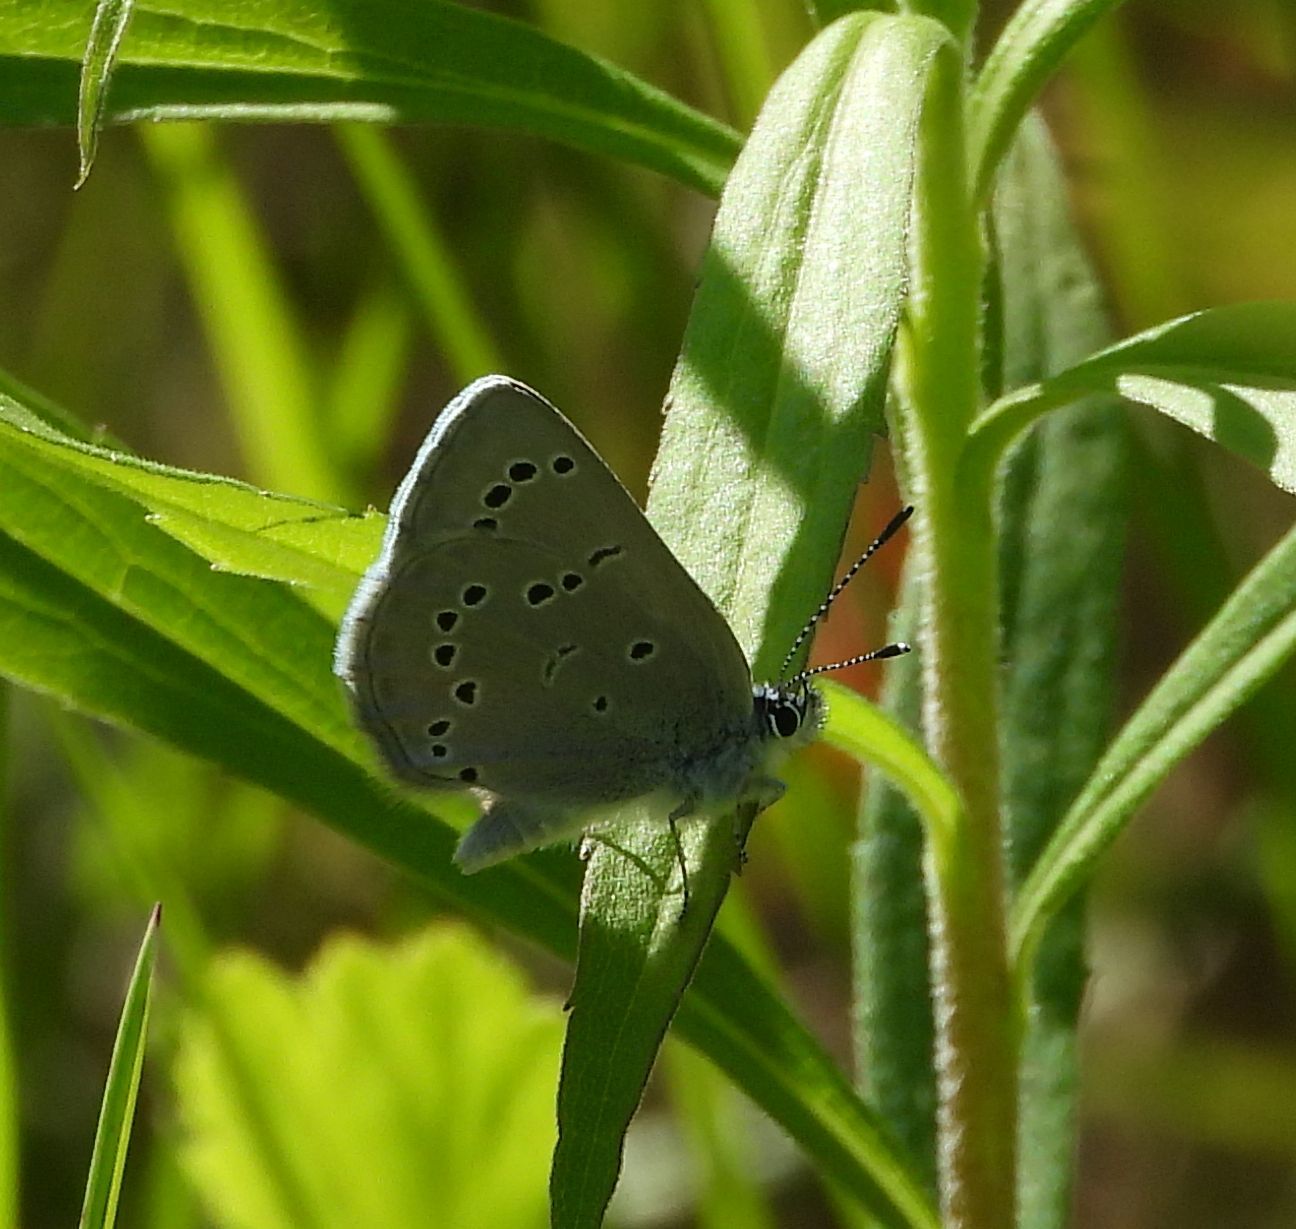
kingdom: Animalia
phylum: Arthropoda
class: Insecta
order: Lepidoptera
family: Lycaenidae
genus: Glaucopsyche
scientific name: Glaucopsyche lygdamus
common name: Silvery blue
